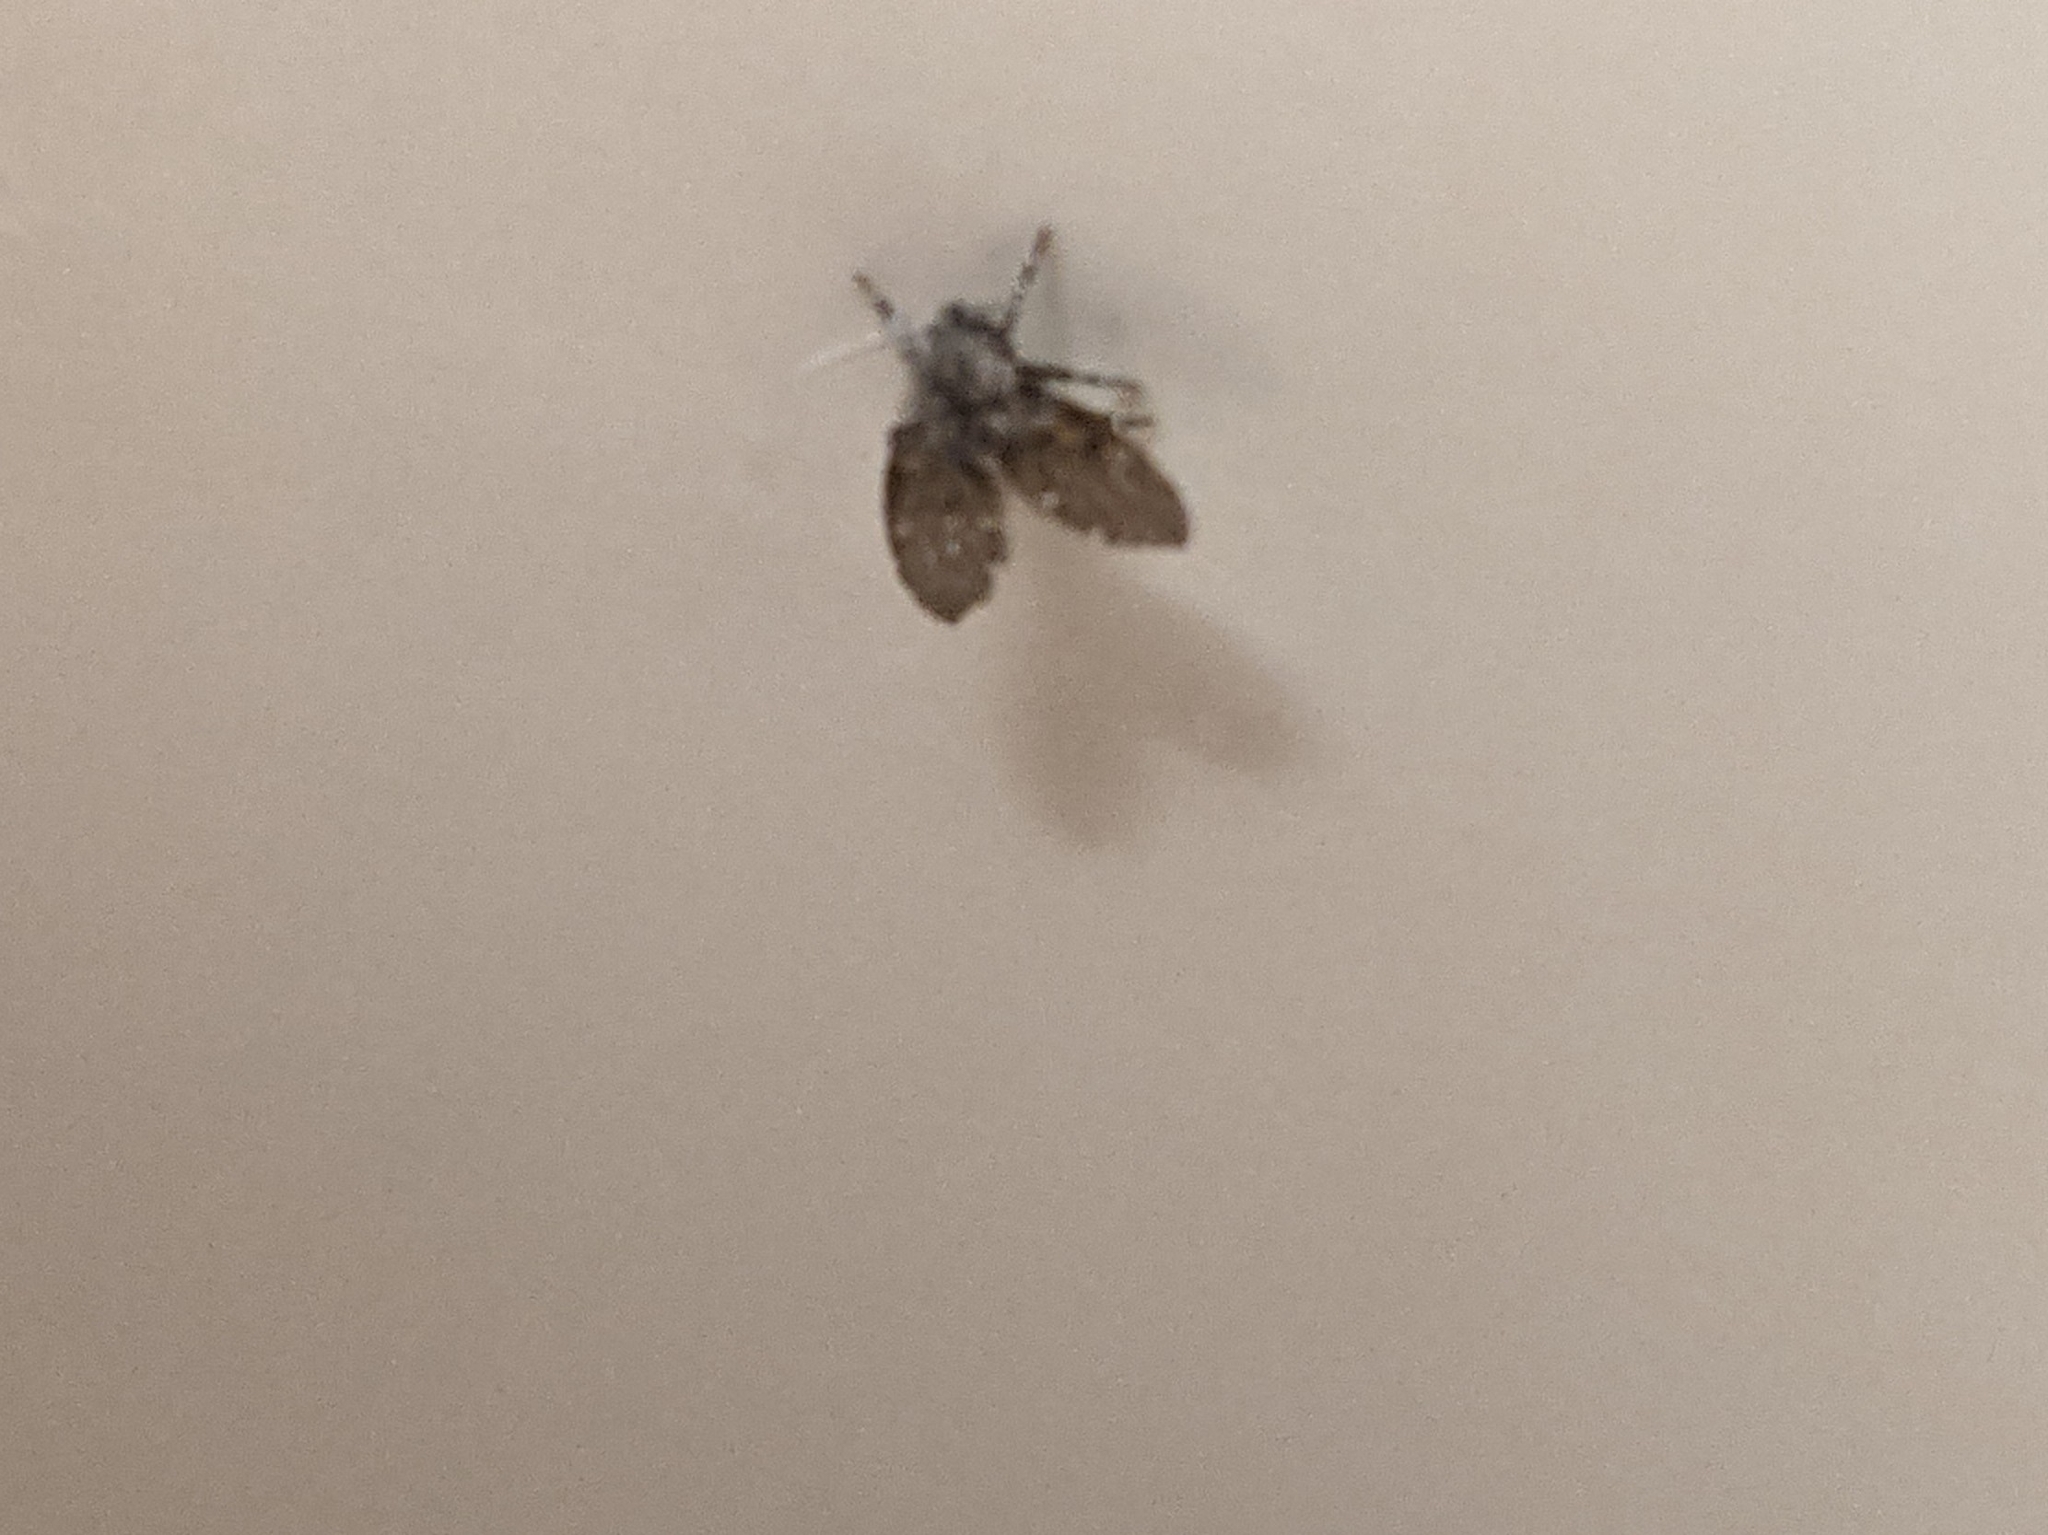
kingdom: Animalia
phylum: Arthropoda
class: Insecta
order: Diptera
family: Psychodidae
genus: Clogmia
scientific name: Clogmia albipunctatus
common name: White-spotted moth fly
